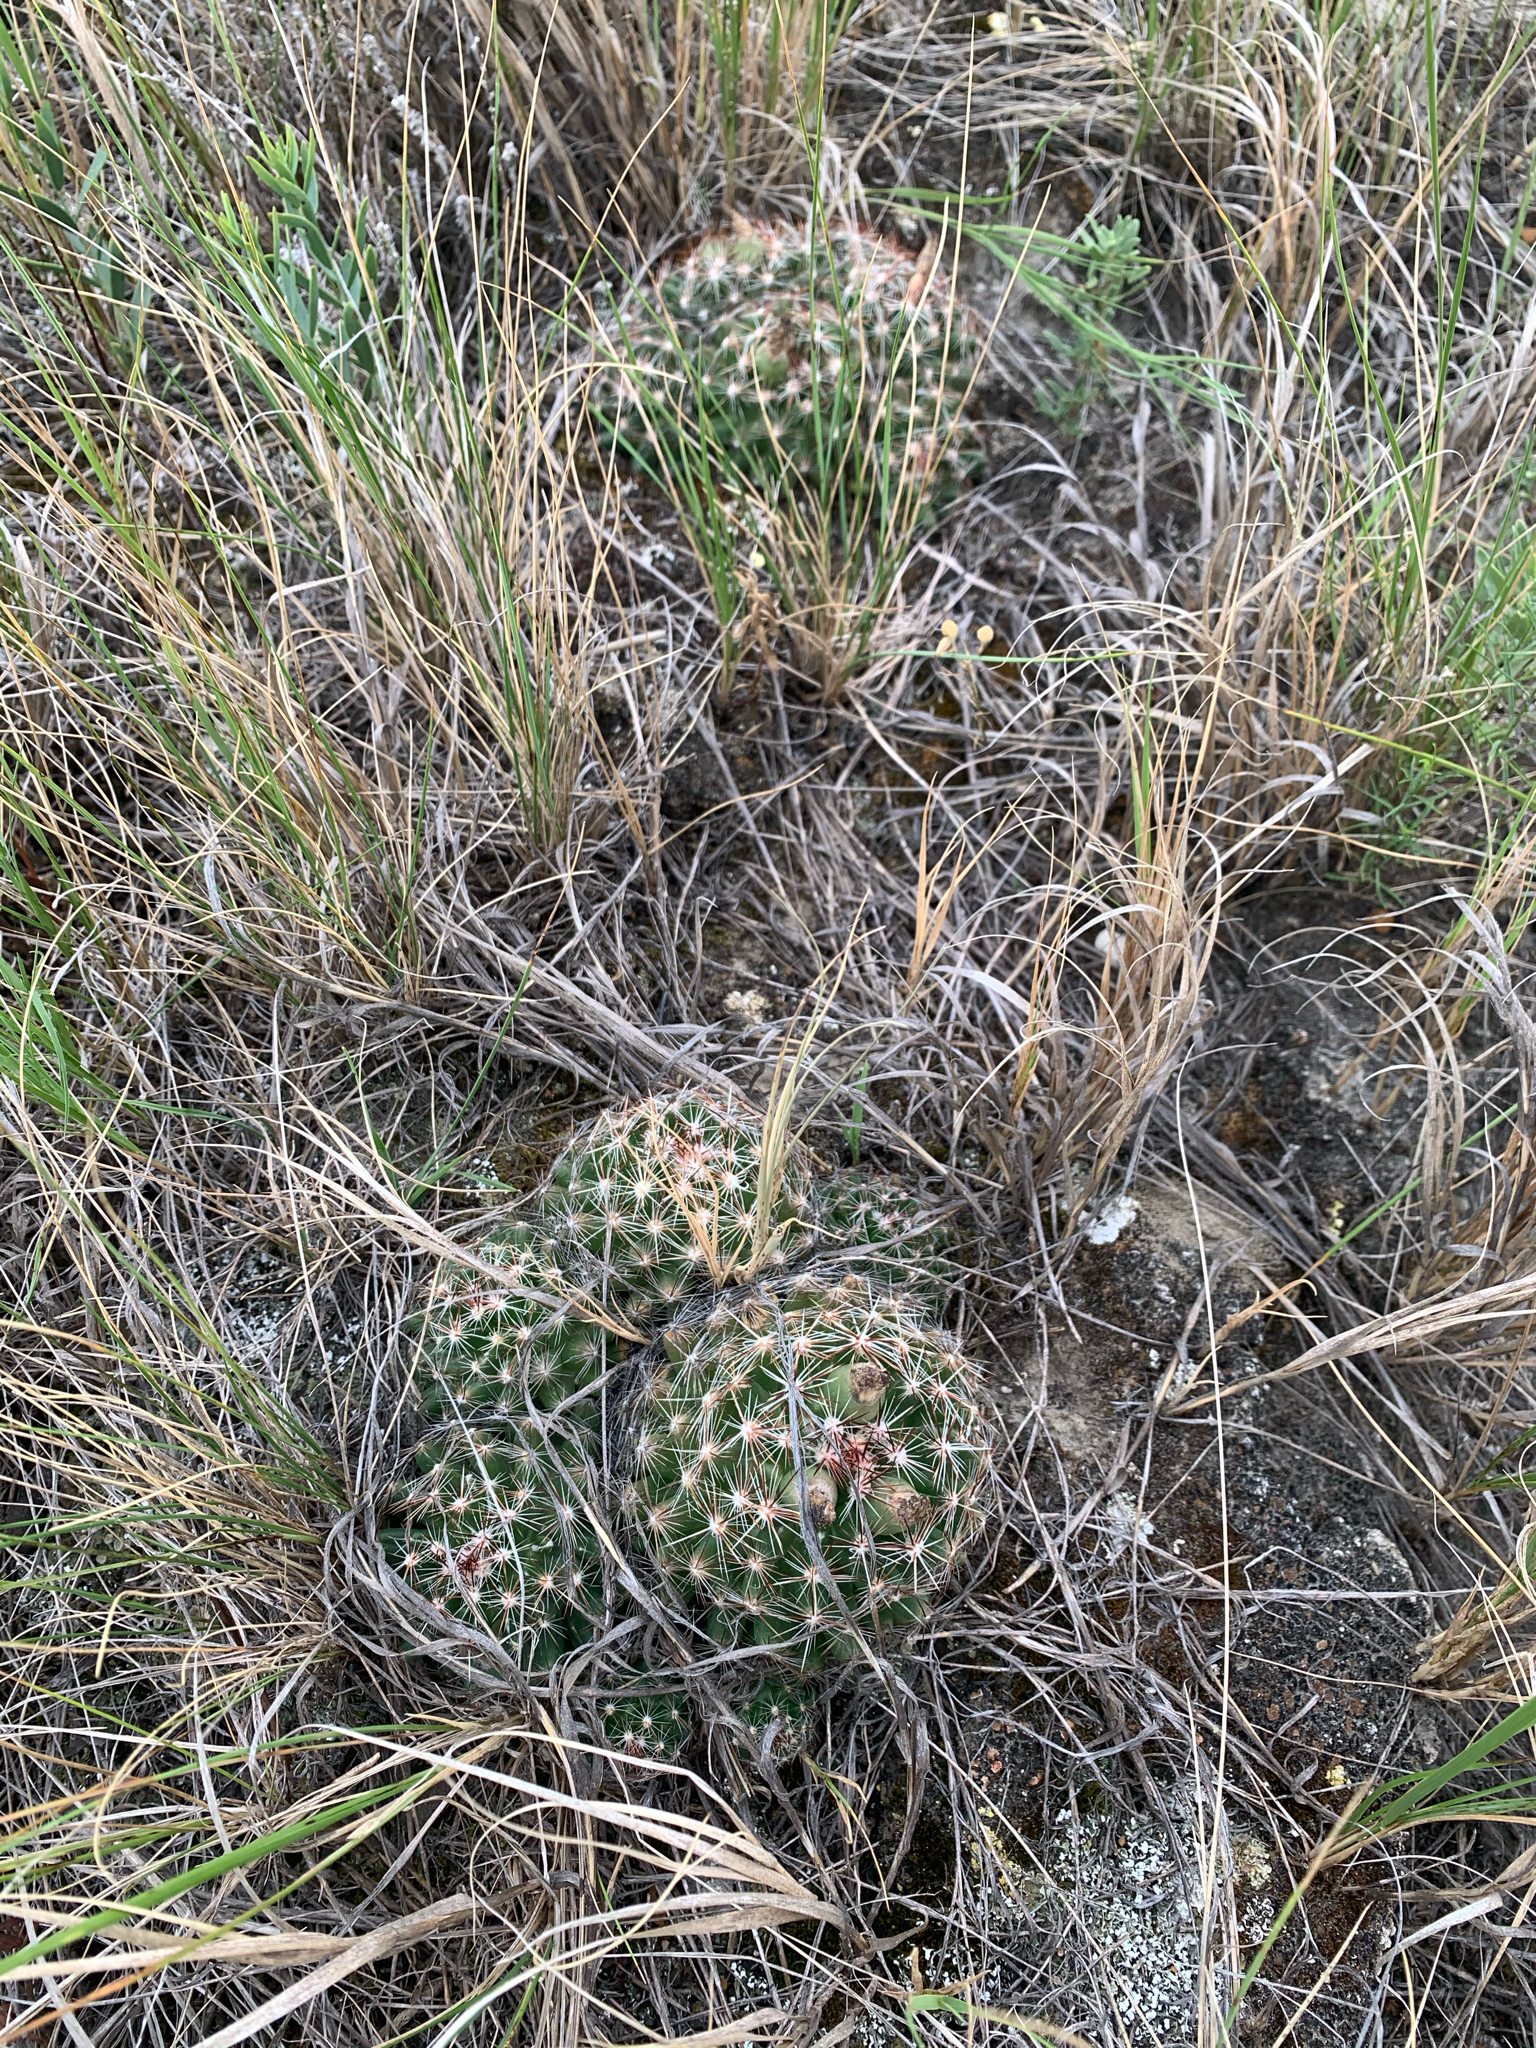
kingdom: Plantae
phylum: Tracheophyta
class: Magnoliopsida
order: Caryophyllales
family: Cactaceae
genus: Pelecyphora
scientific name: Pelecyphora vivipara
